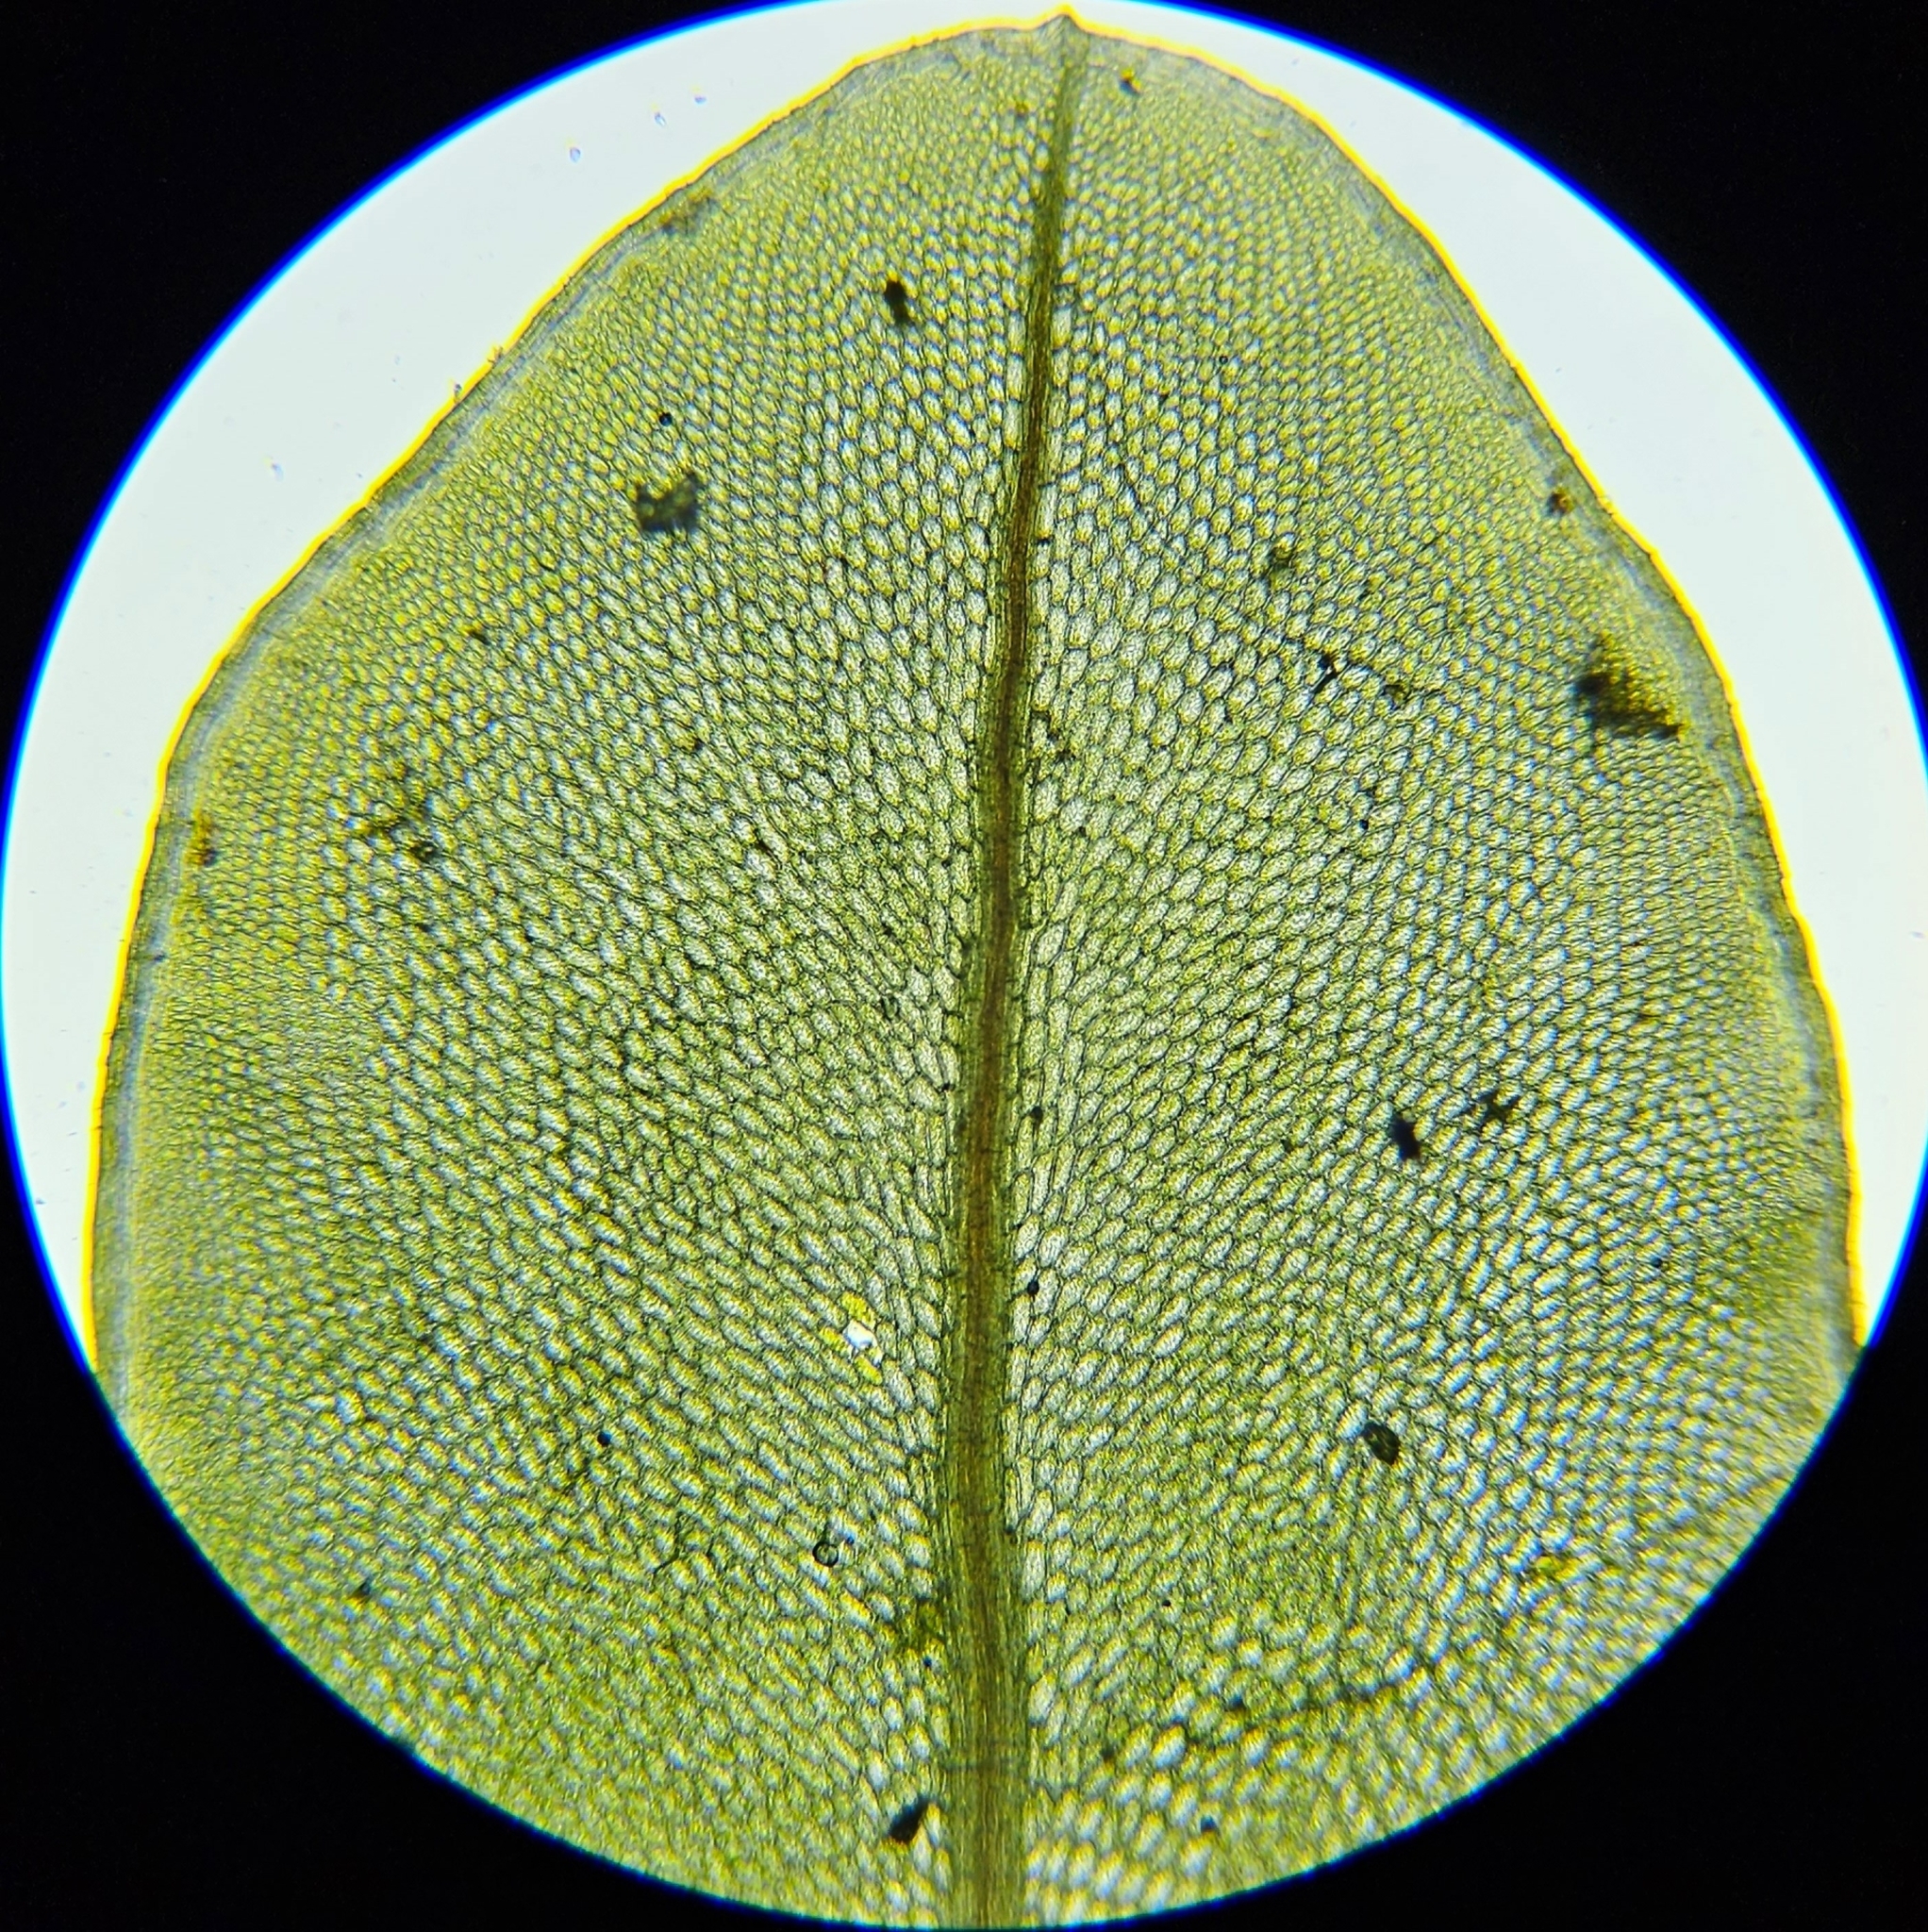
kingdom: Plantae
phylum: Bryophyta
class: Bryopsida
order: Bryales
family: Mniaceae
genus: Rhizomnium
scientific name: Rhizomnium punctatum
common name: Dotted leafy moss
